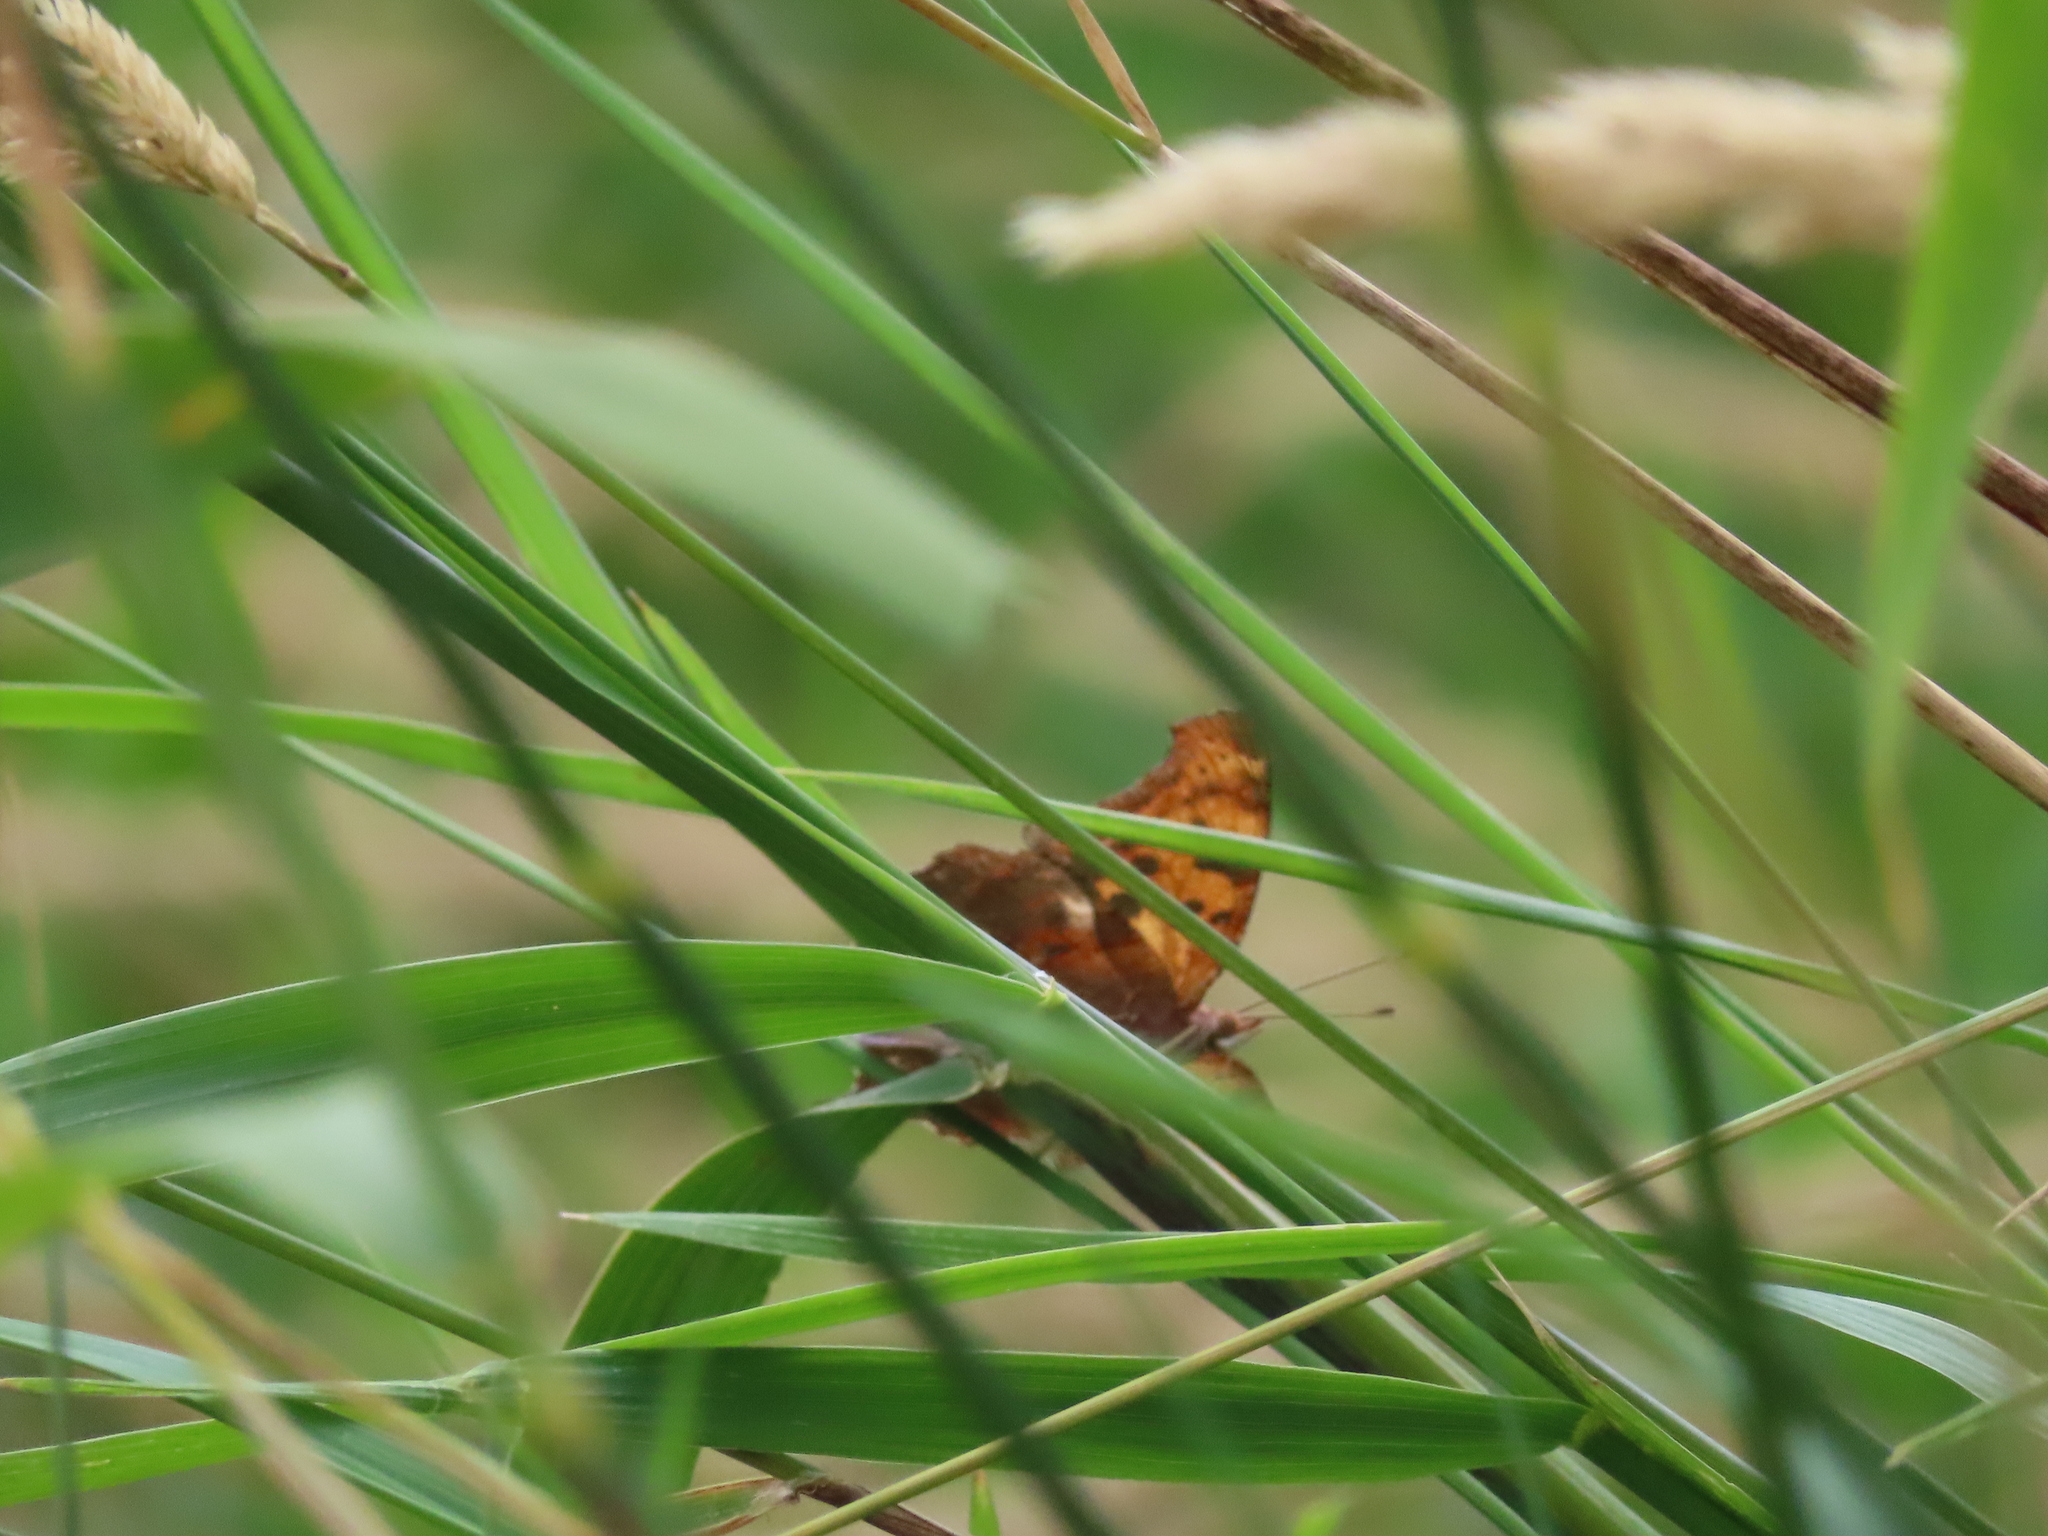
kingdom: Animalia
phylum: Arthropoda
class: Insecta
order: Lepidoptera
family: Nymphalidae
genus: Polygonia
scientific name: Polygonia interrogationis
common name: Question mark
